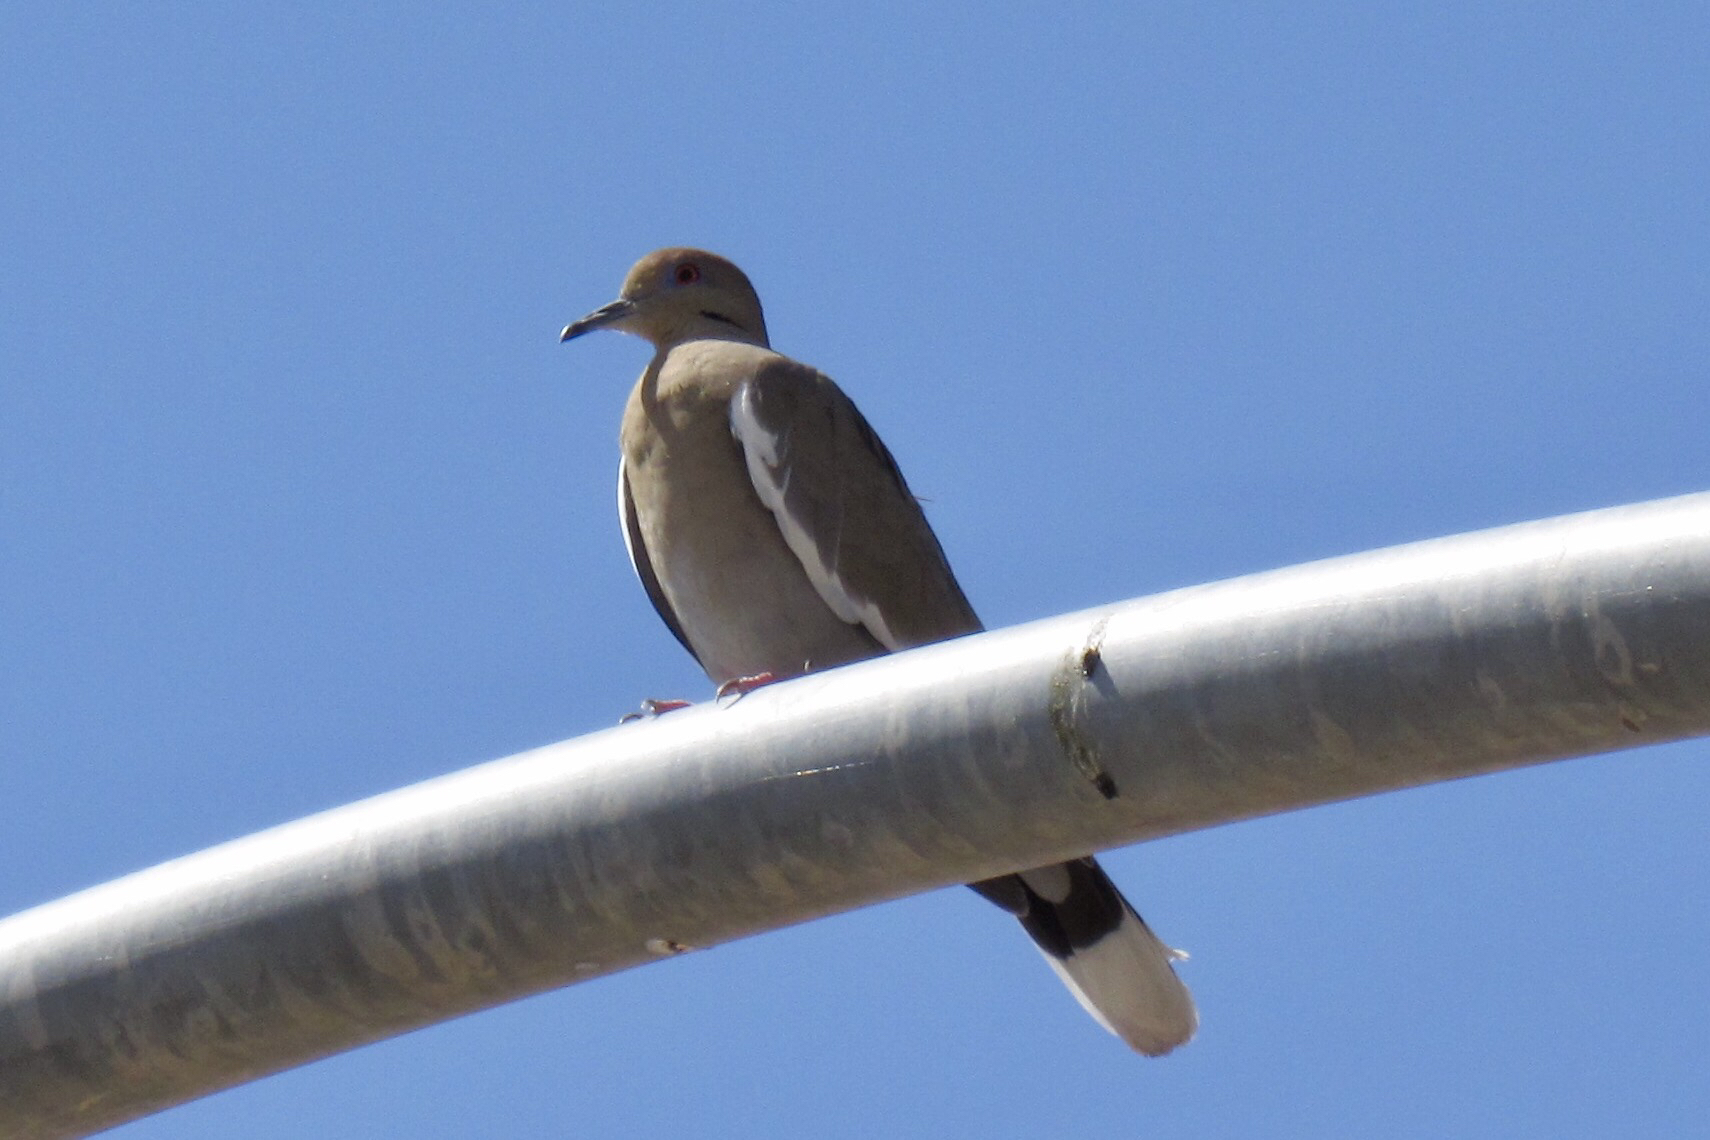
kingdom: Animalia
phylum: Chordata
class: Aves
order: Columbiformes
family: Columbidae
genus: Zenaida
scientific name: Zenaida asiatica
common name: White-winged dove
